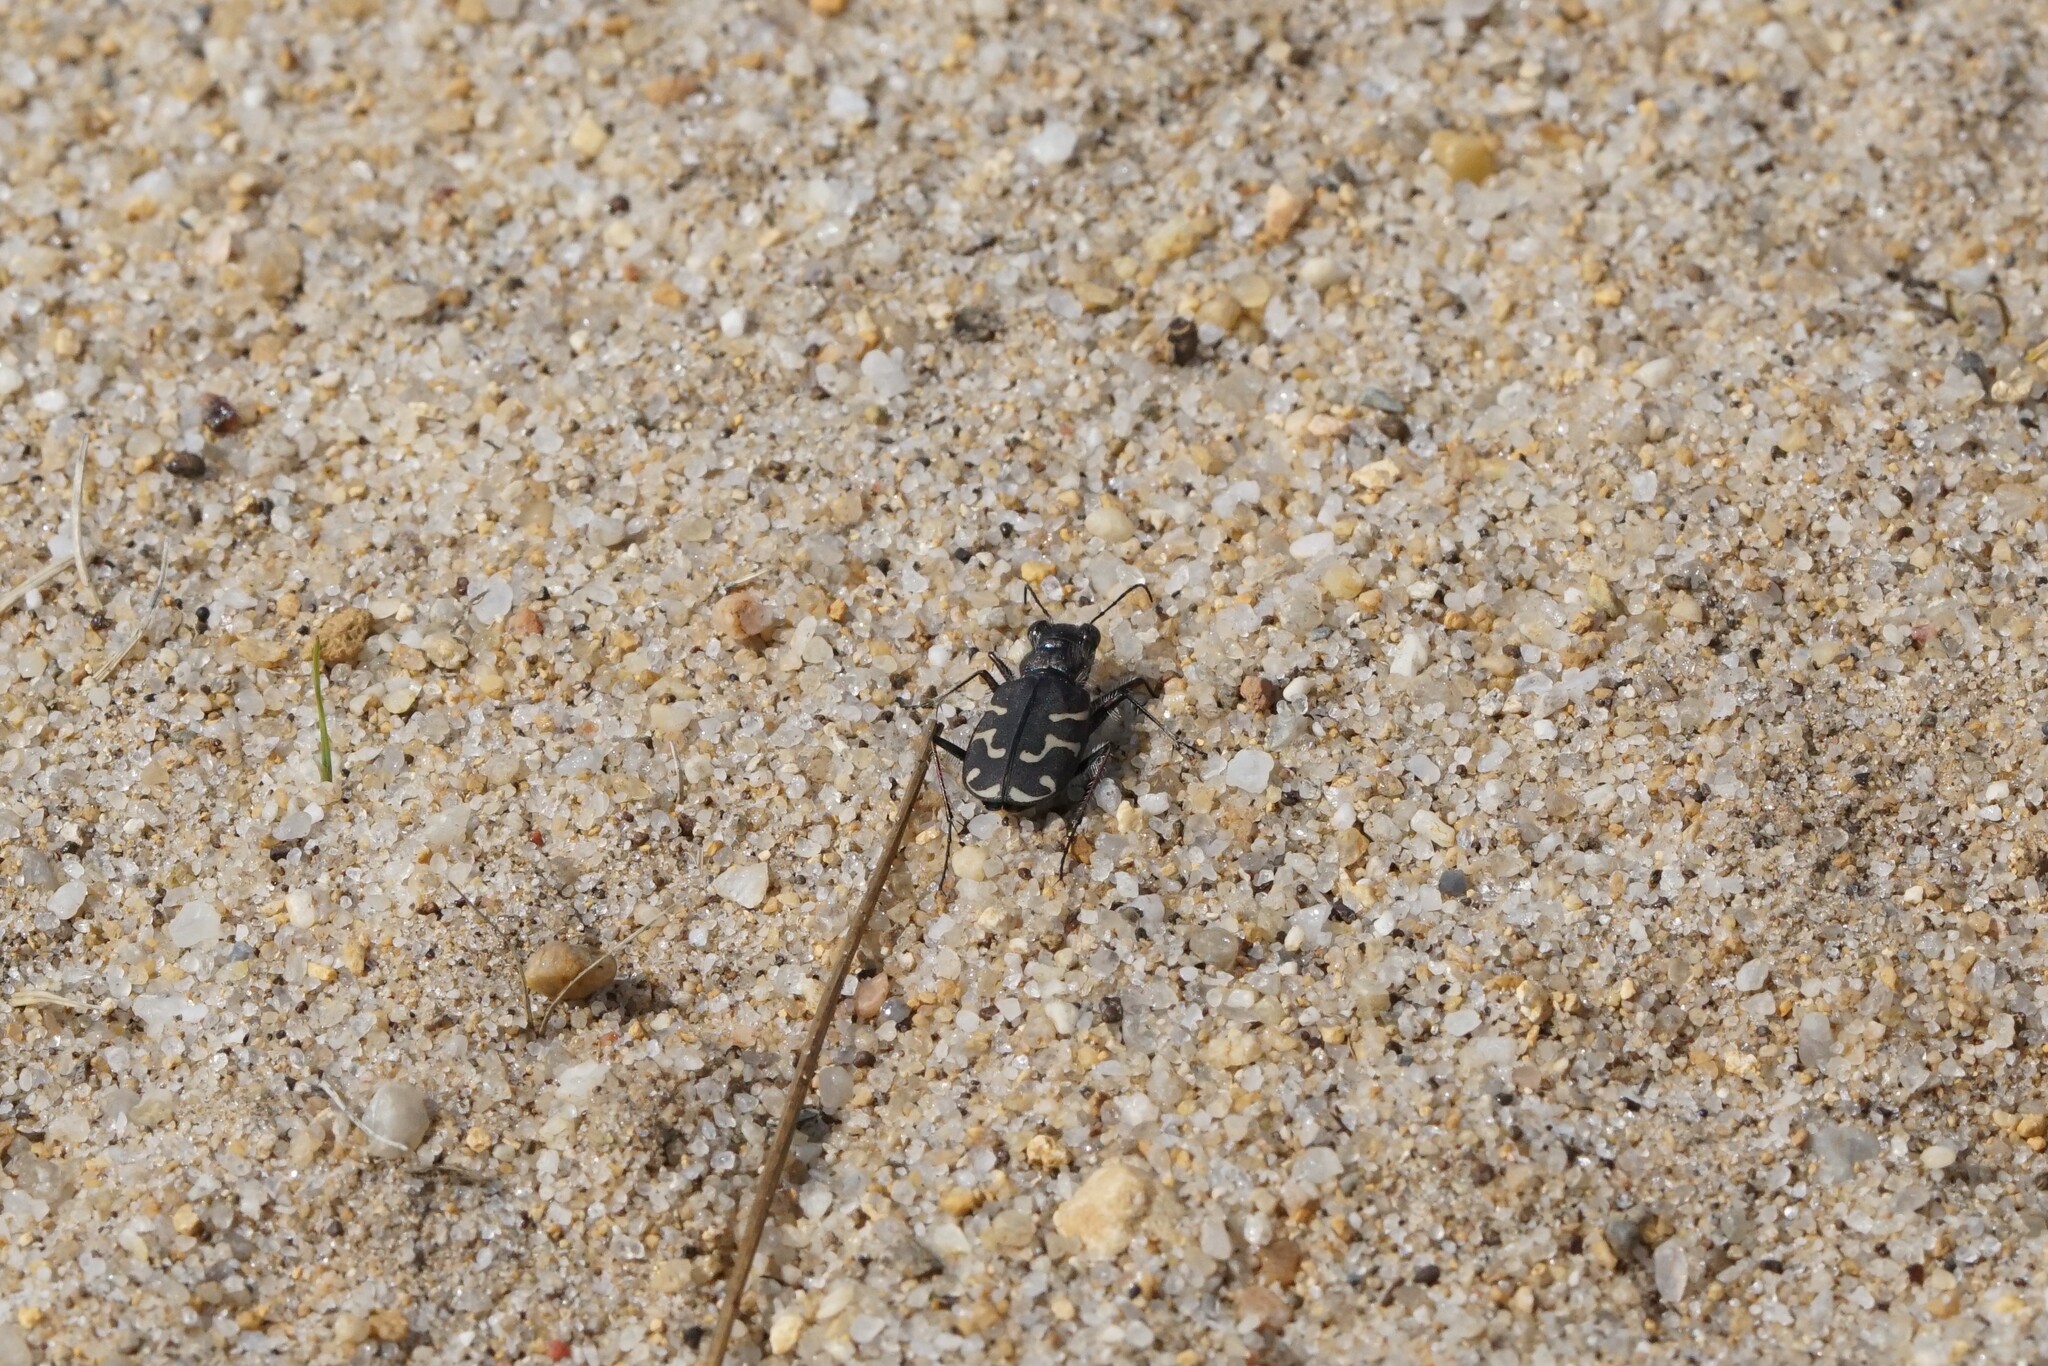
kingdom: Animalia
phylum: Arthropoda
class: Insecta
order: Coleoptera
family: Carabidae
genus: Cicindela
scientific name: Cicindela tranquebarica
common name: Oblique-lined tiger beetle
